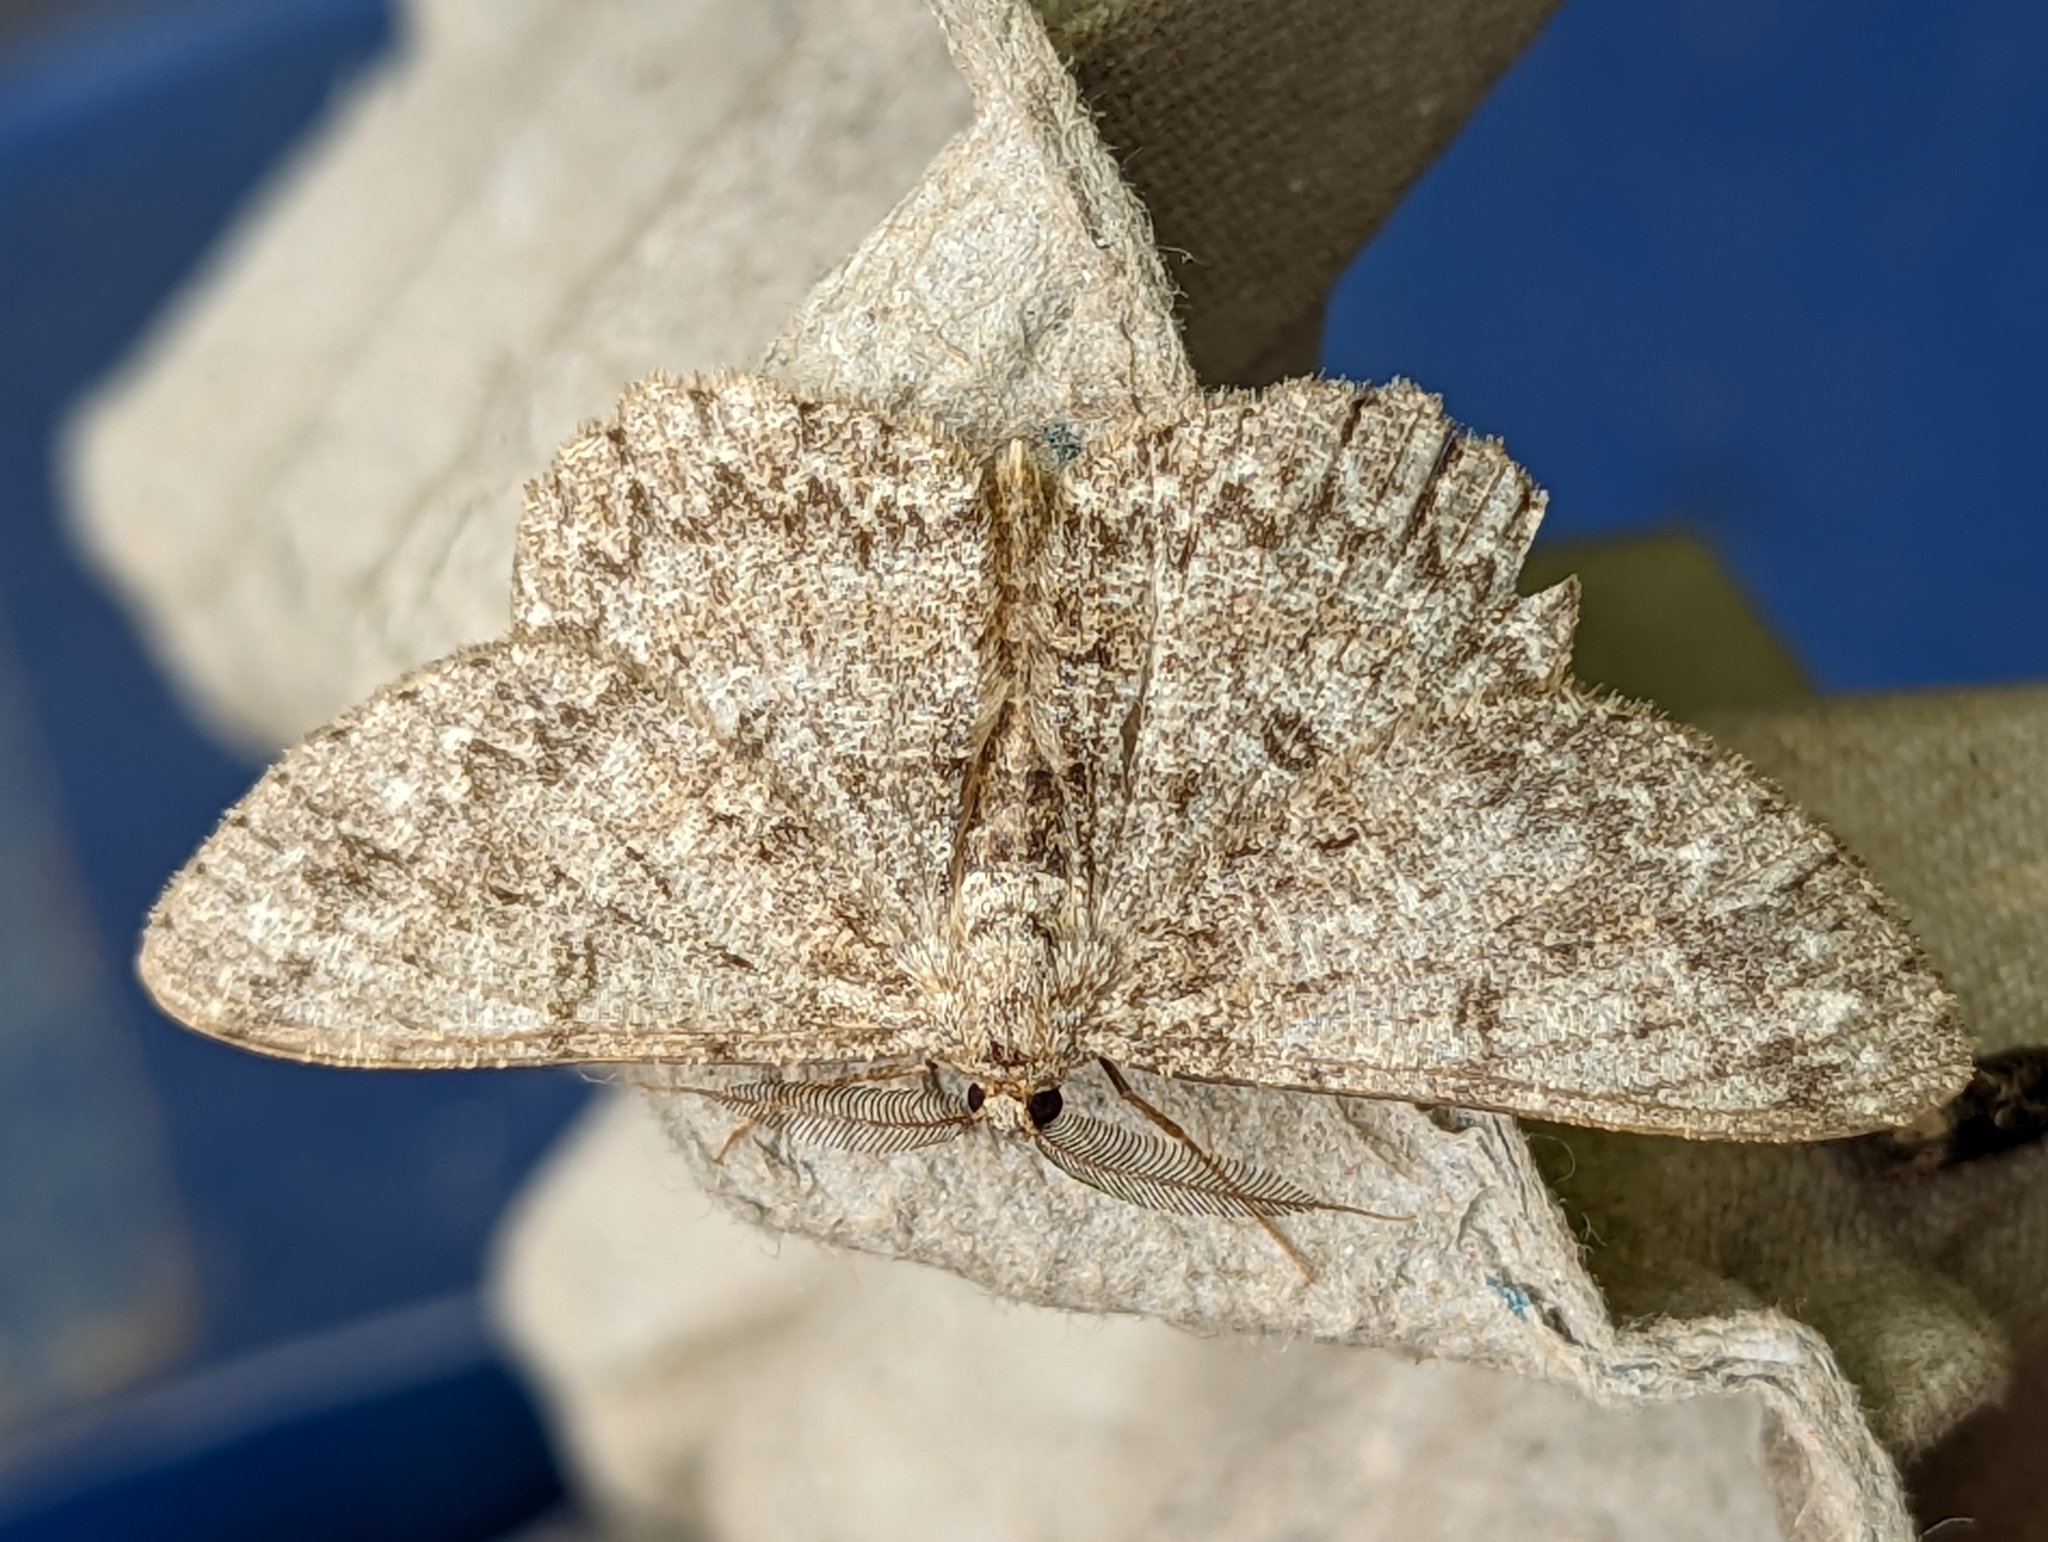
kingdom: Animalia
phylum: Arthropoda
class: Insecta
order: Lepidoptera
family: Geometridae
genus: Hypomecis
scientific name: Hypomecis punctinalis
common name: Pale oak beauty
